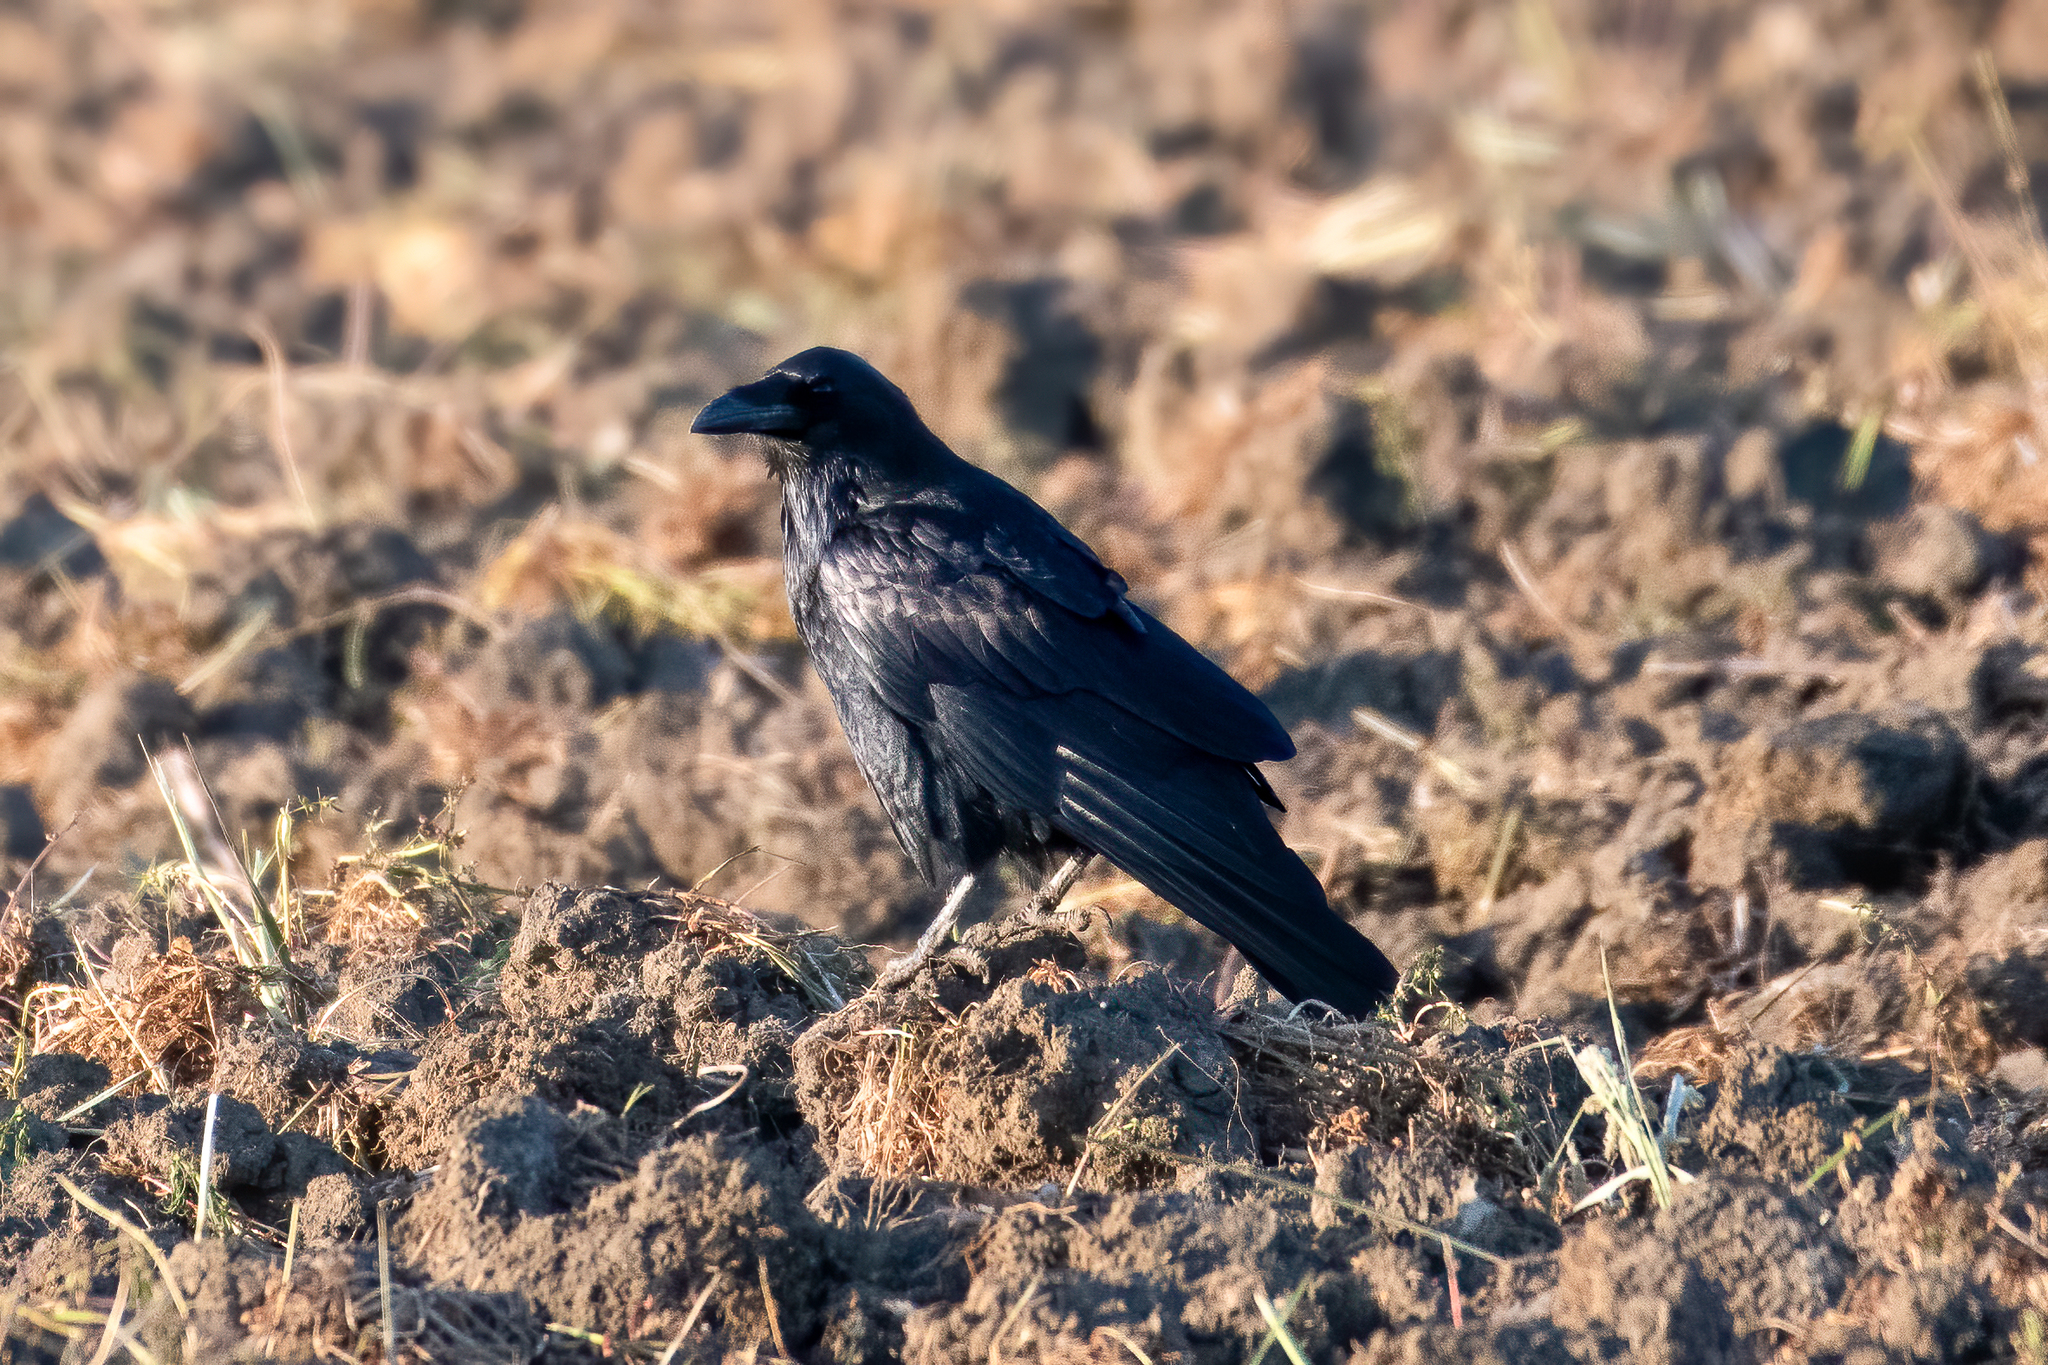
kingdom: Animalia
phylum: Chordata
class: Aves
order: Passeriformes
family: Corvidae
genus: Corvus
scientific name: Corvus corax
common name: Common raven
